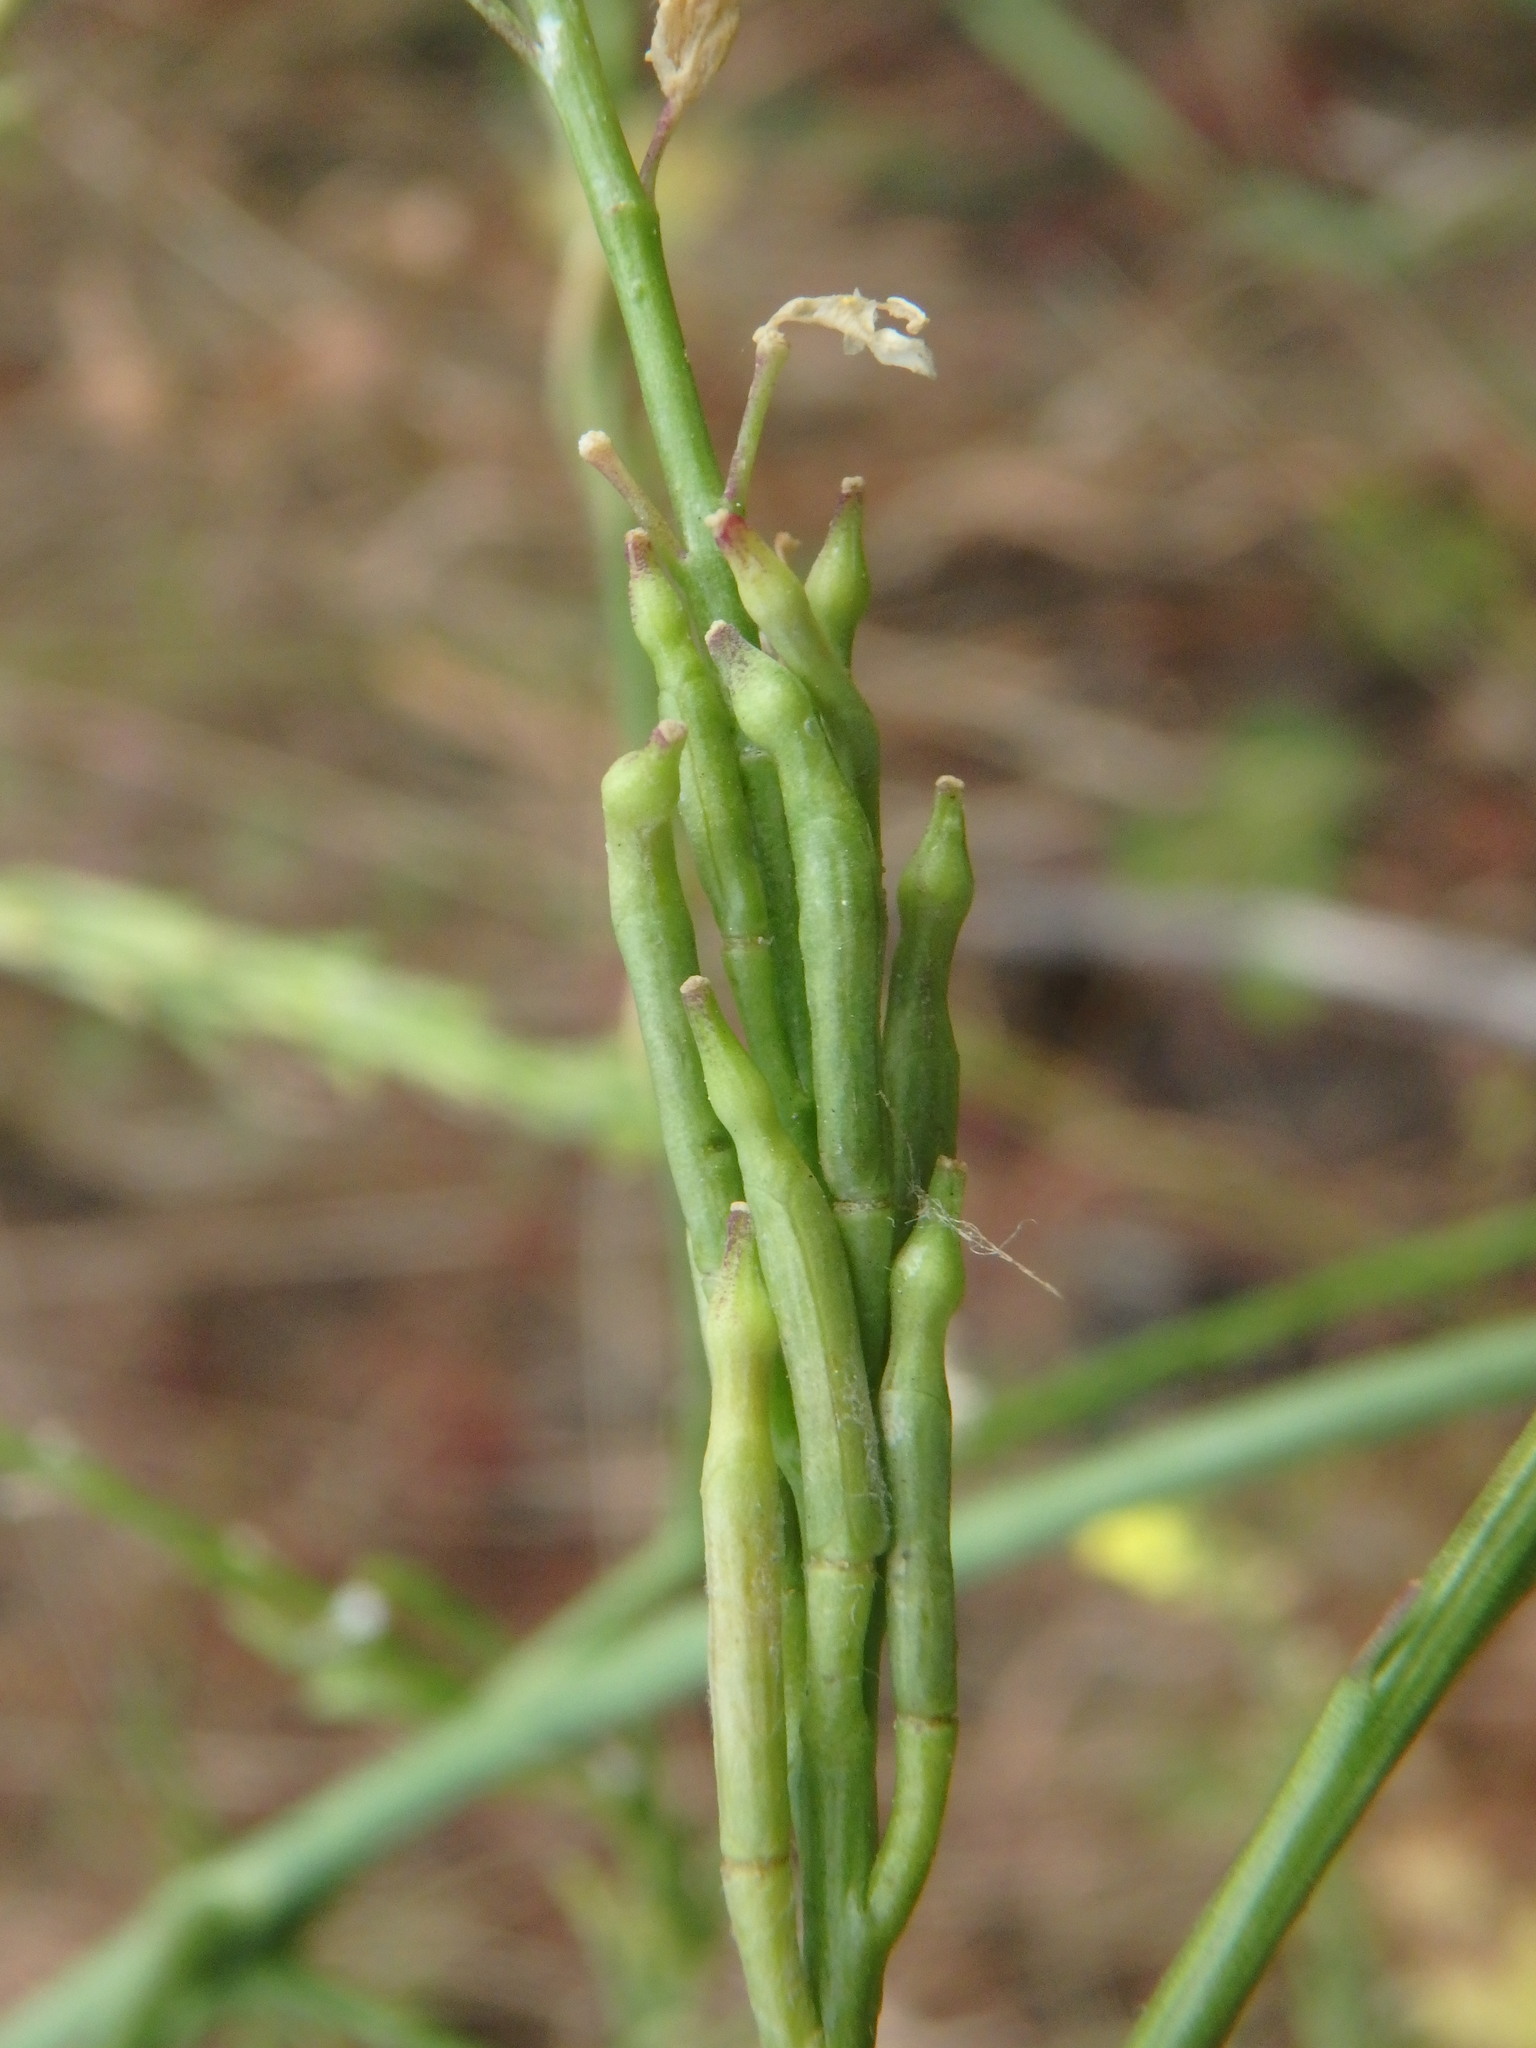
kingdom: Plantae
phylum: Tracheophyta
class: Magnoliopsida
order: Brassicales
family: Brassicaceae
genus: Hirschfeldia
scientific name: Hirschfeldia incana
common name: Hoary mustard
